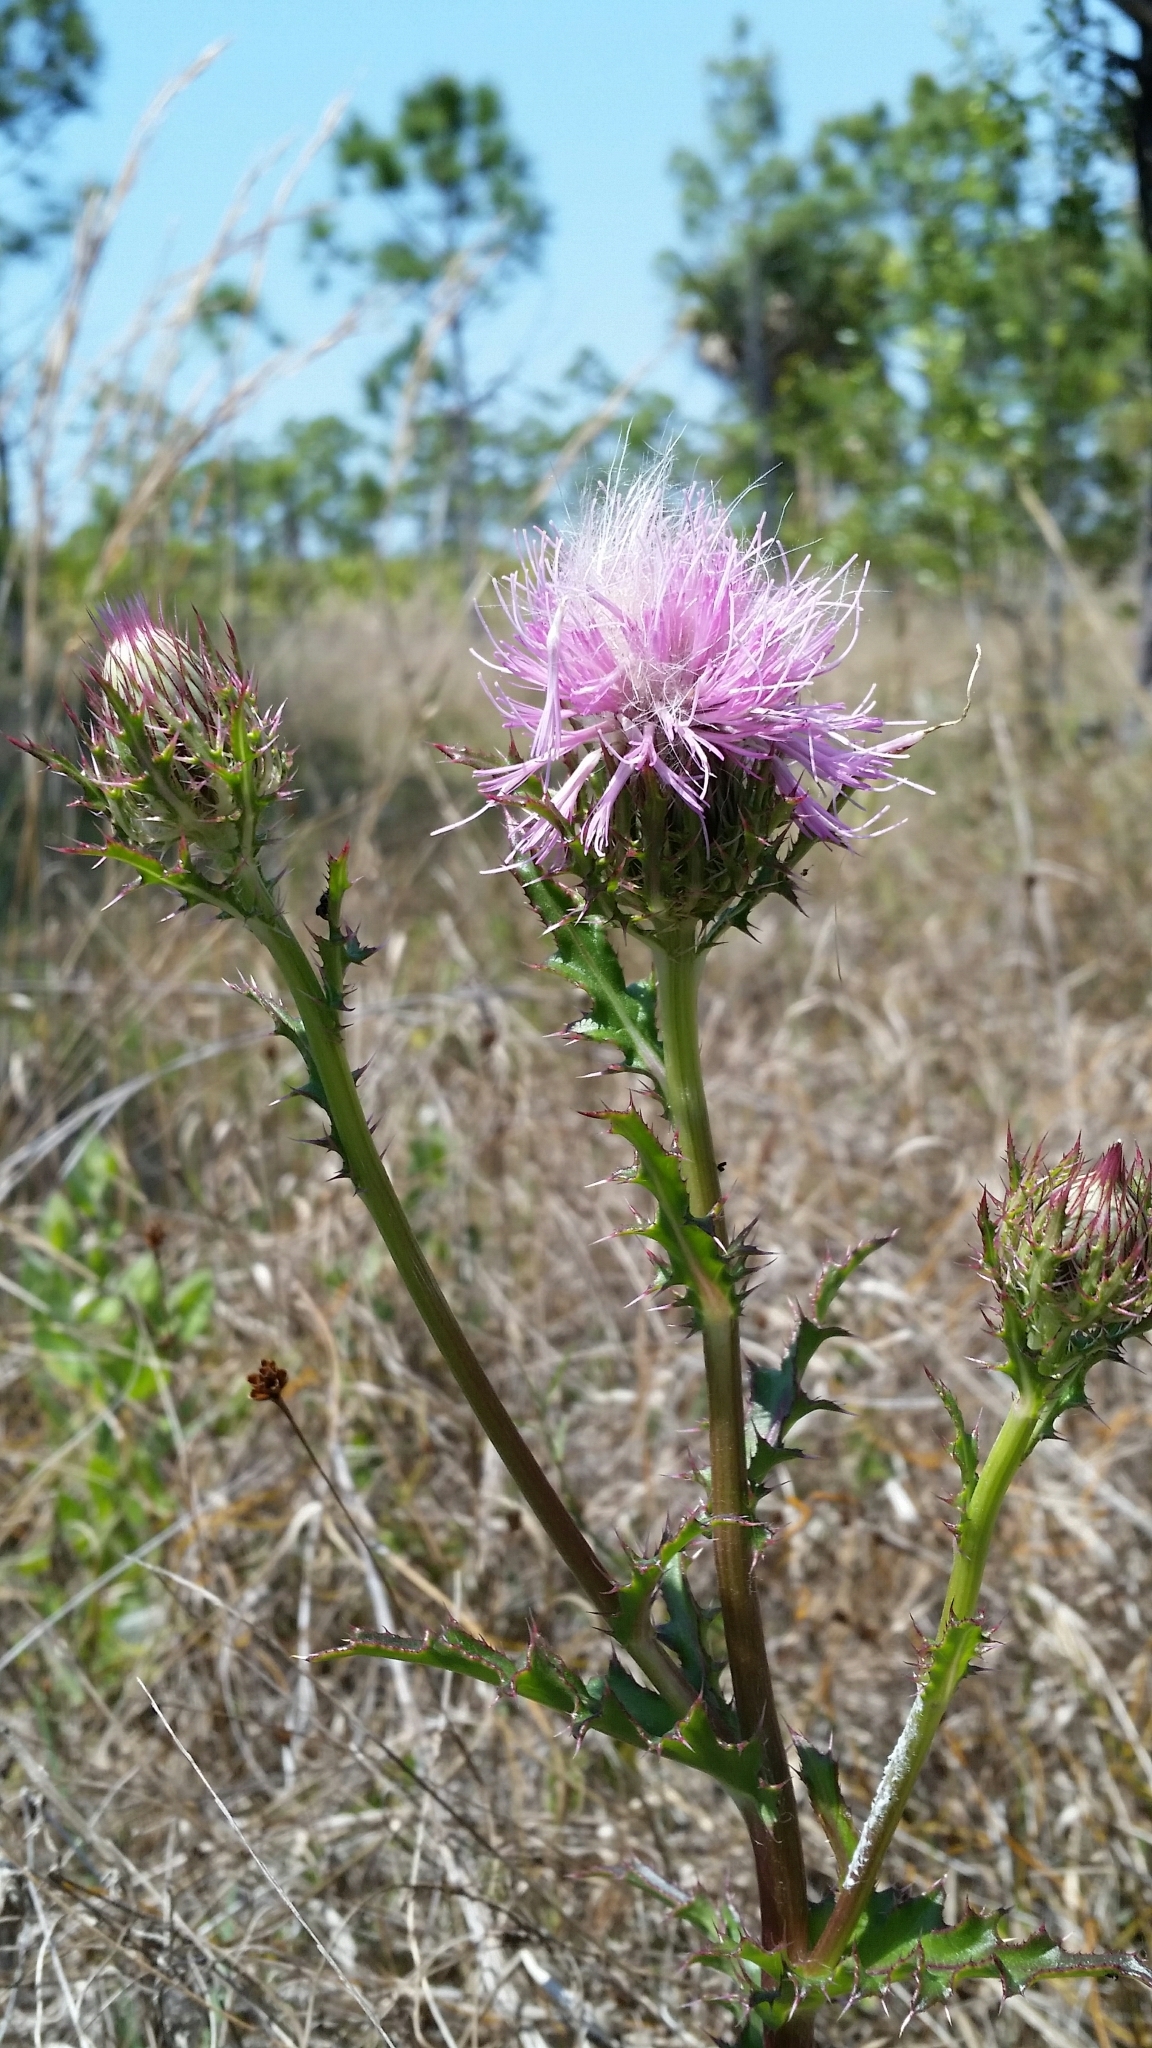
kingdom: Plantae
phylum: Tracheophyta
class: Magnoliopsida
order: Asterales
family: Asteraceae
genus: Cirsium
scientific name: Cirsium horridulum
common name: Bristly thistle
